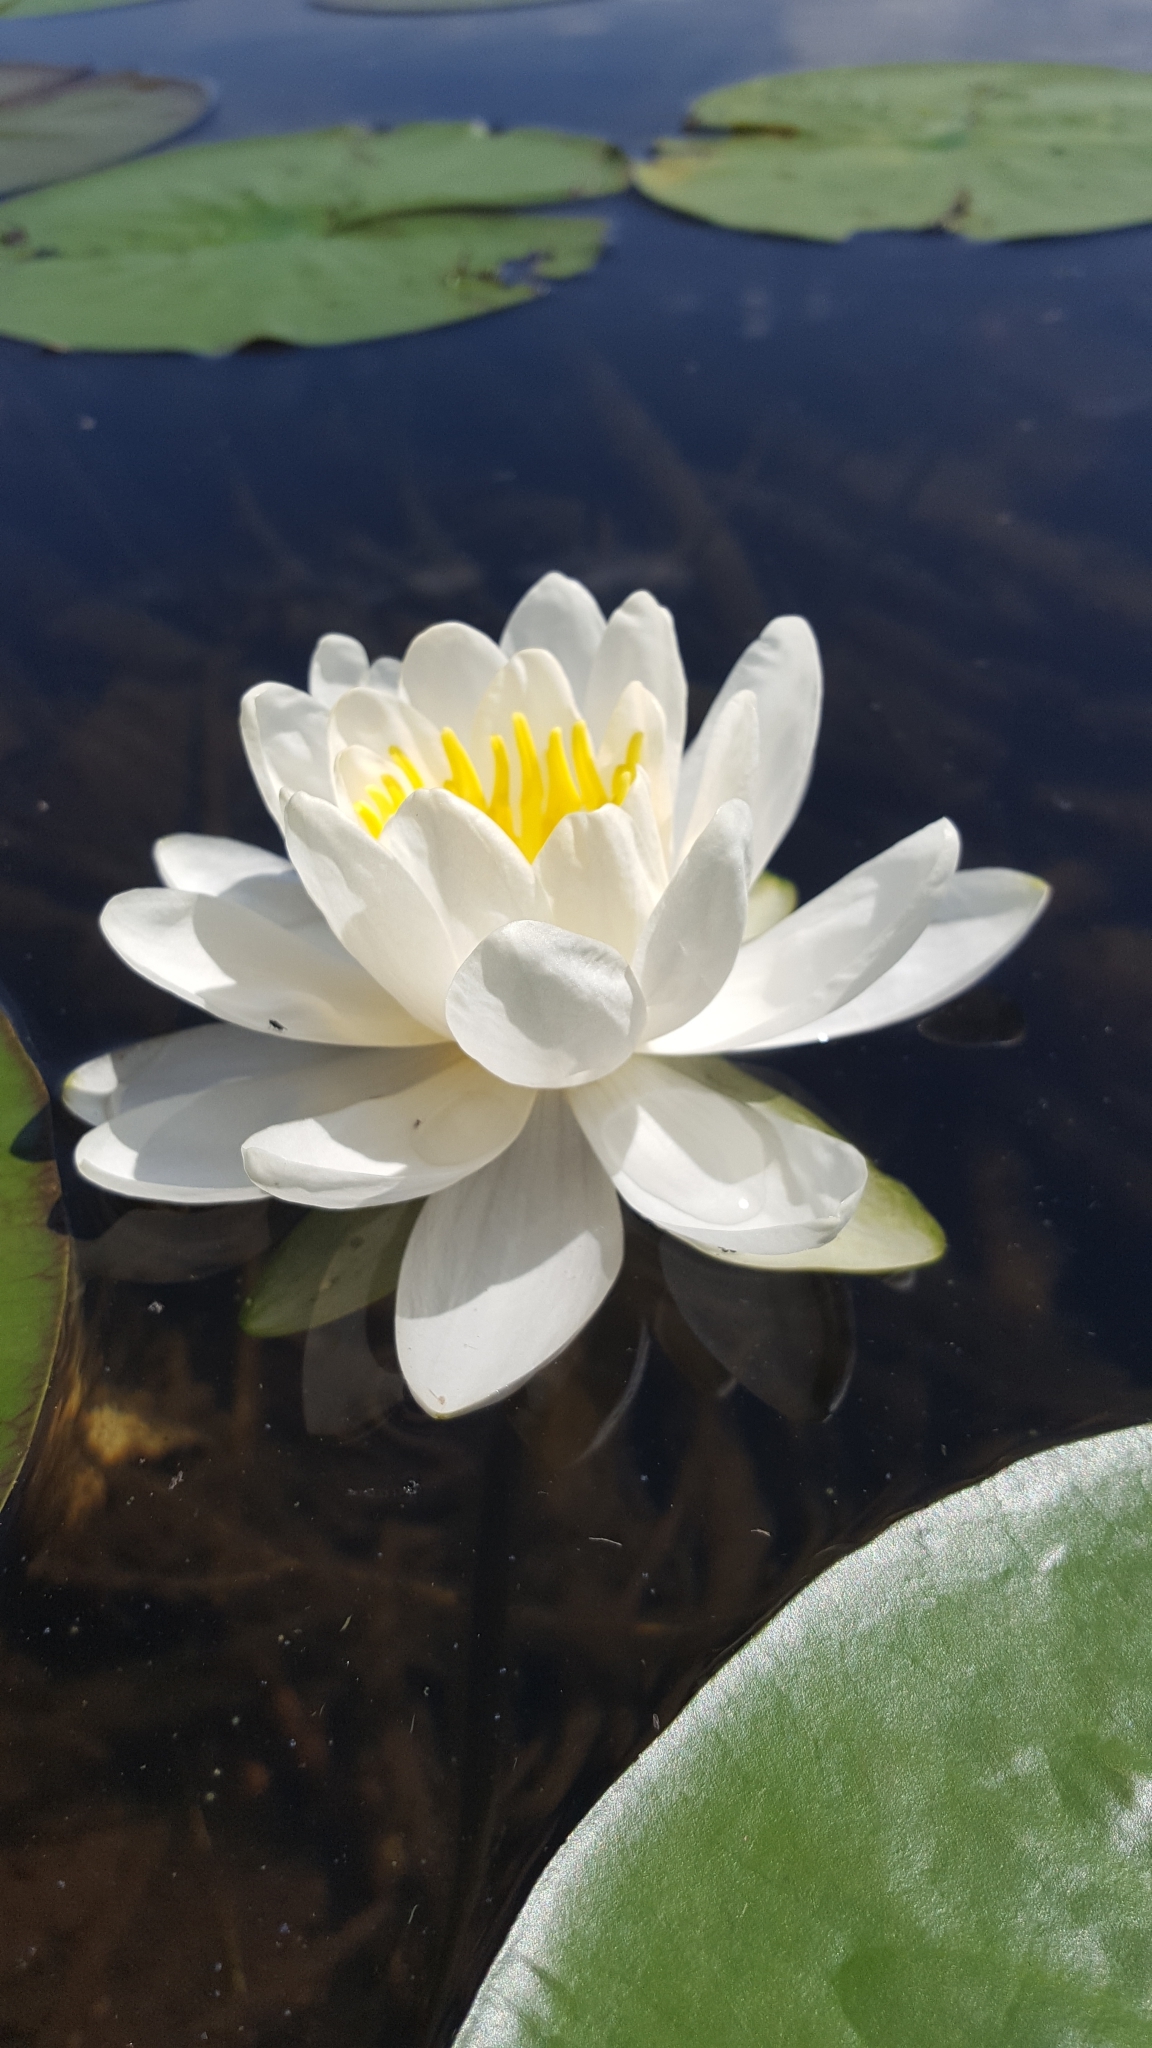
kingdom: Plantae
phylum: Tracheophyta
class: Magnoliopsida
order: Nymphaeales
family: Nymphaeaceae
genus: Nymphaea
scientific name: Nymphaea odorata
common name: Fragrant water-lily
